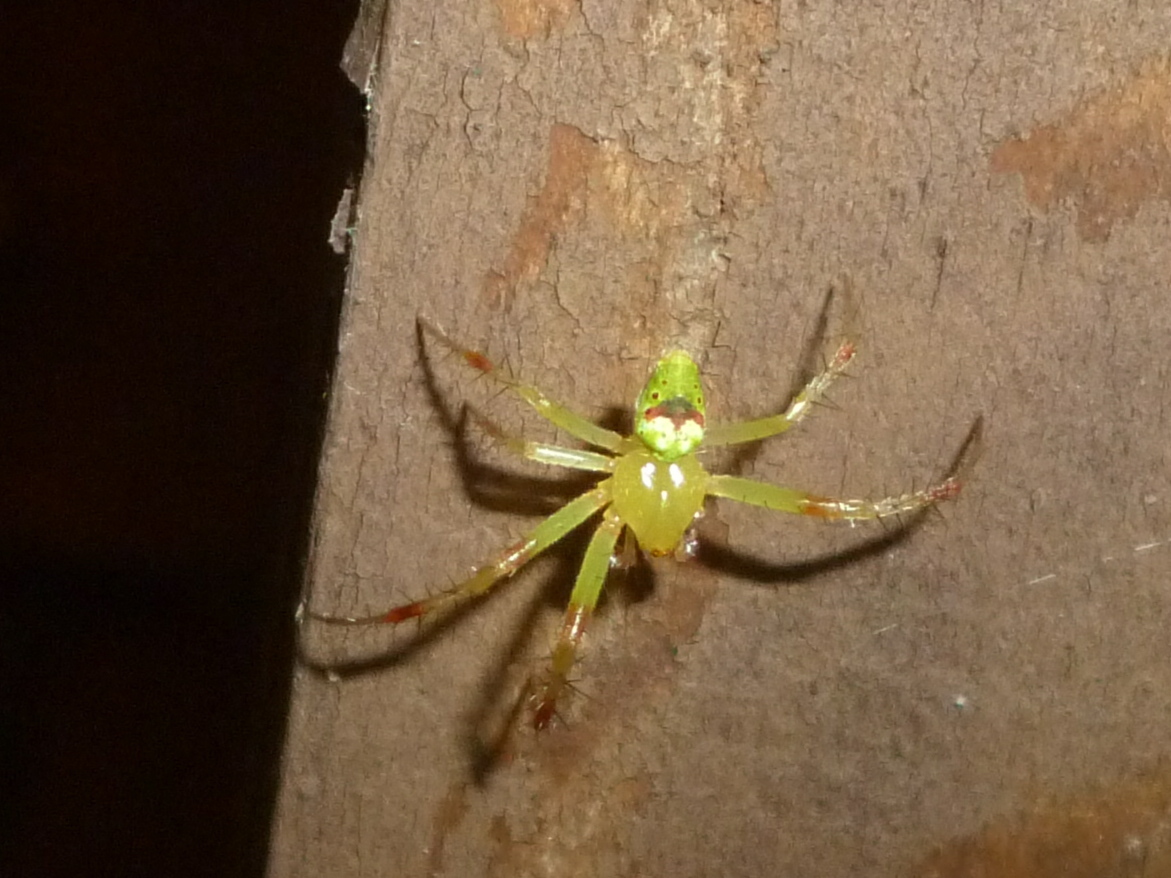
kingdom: Animalia
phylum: Arthropoda
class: Arachnida
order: Araneae
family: Araneidae
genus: Araneus
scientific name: Araneus bonsallae
